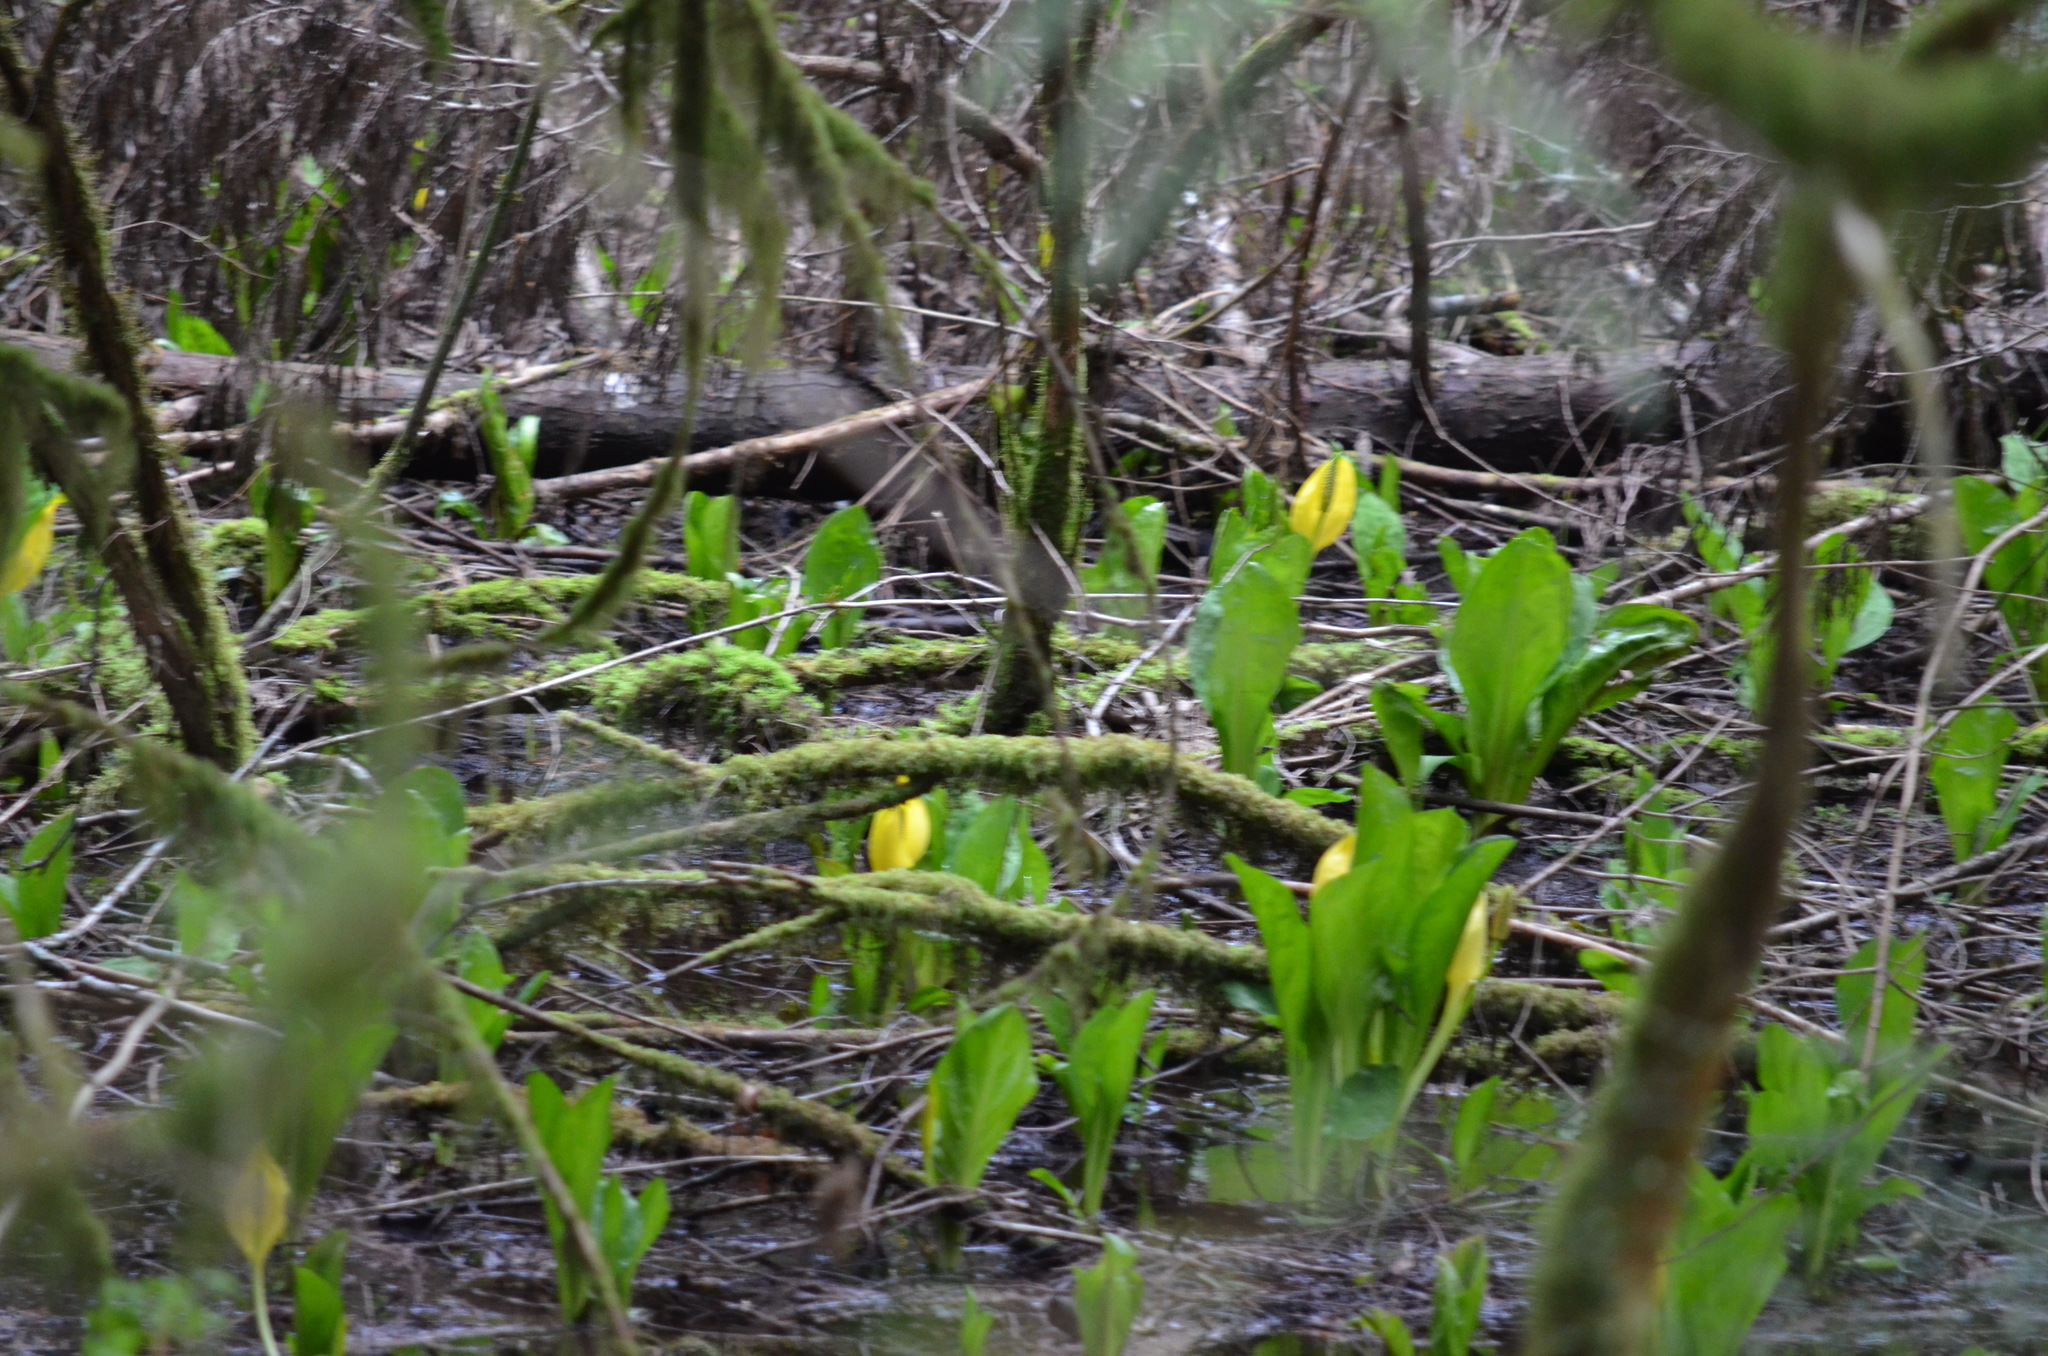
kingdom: Plantae
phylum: Tracheophyta
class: Liliopsida
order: Alismatales
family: Araceae
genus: Lysichiton
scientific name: Lysichiton americanus
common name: American skunk cabbage
